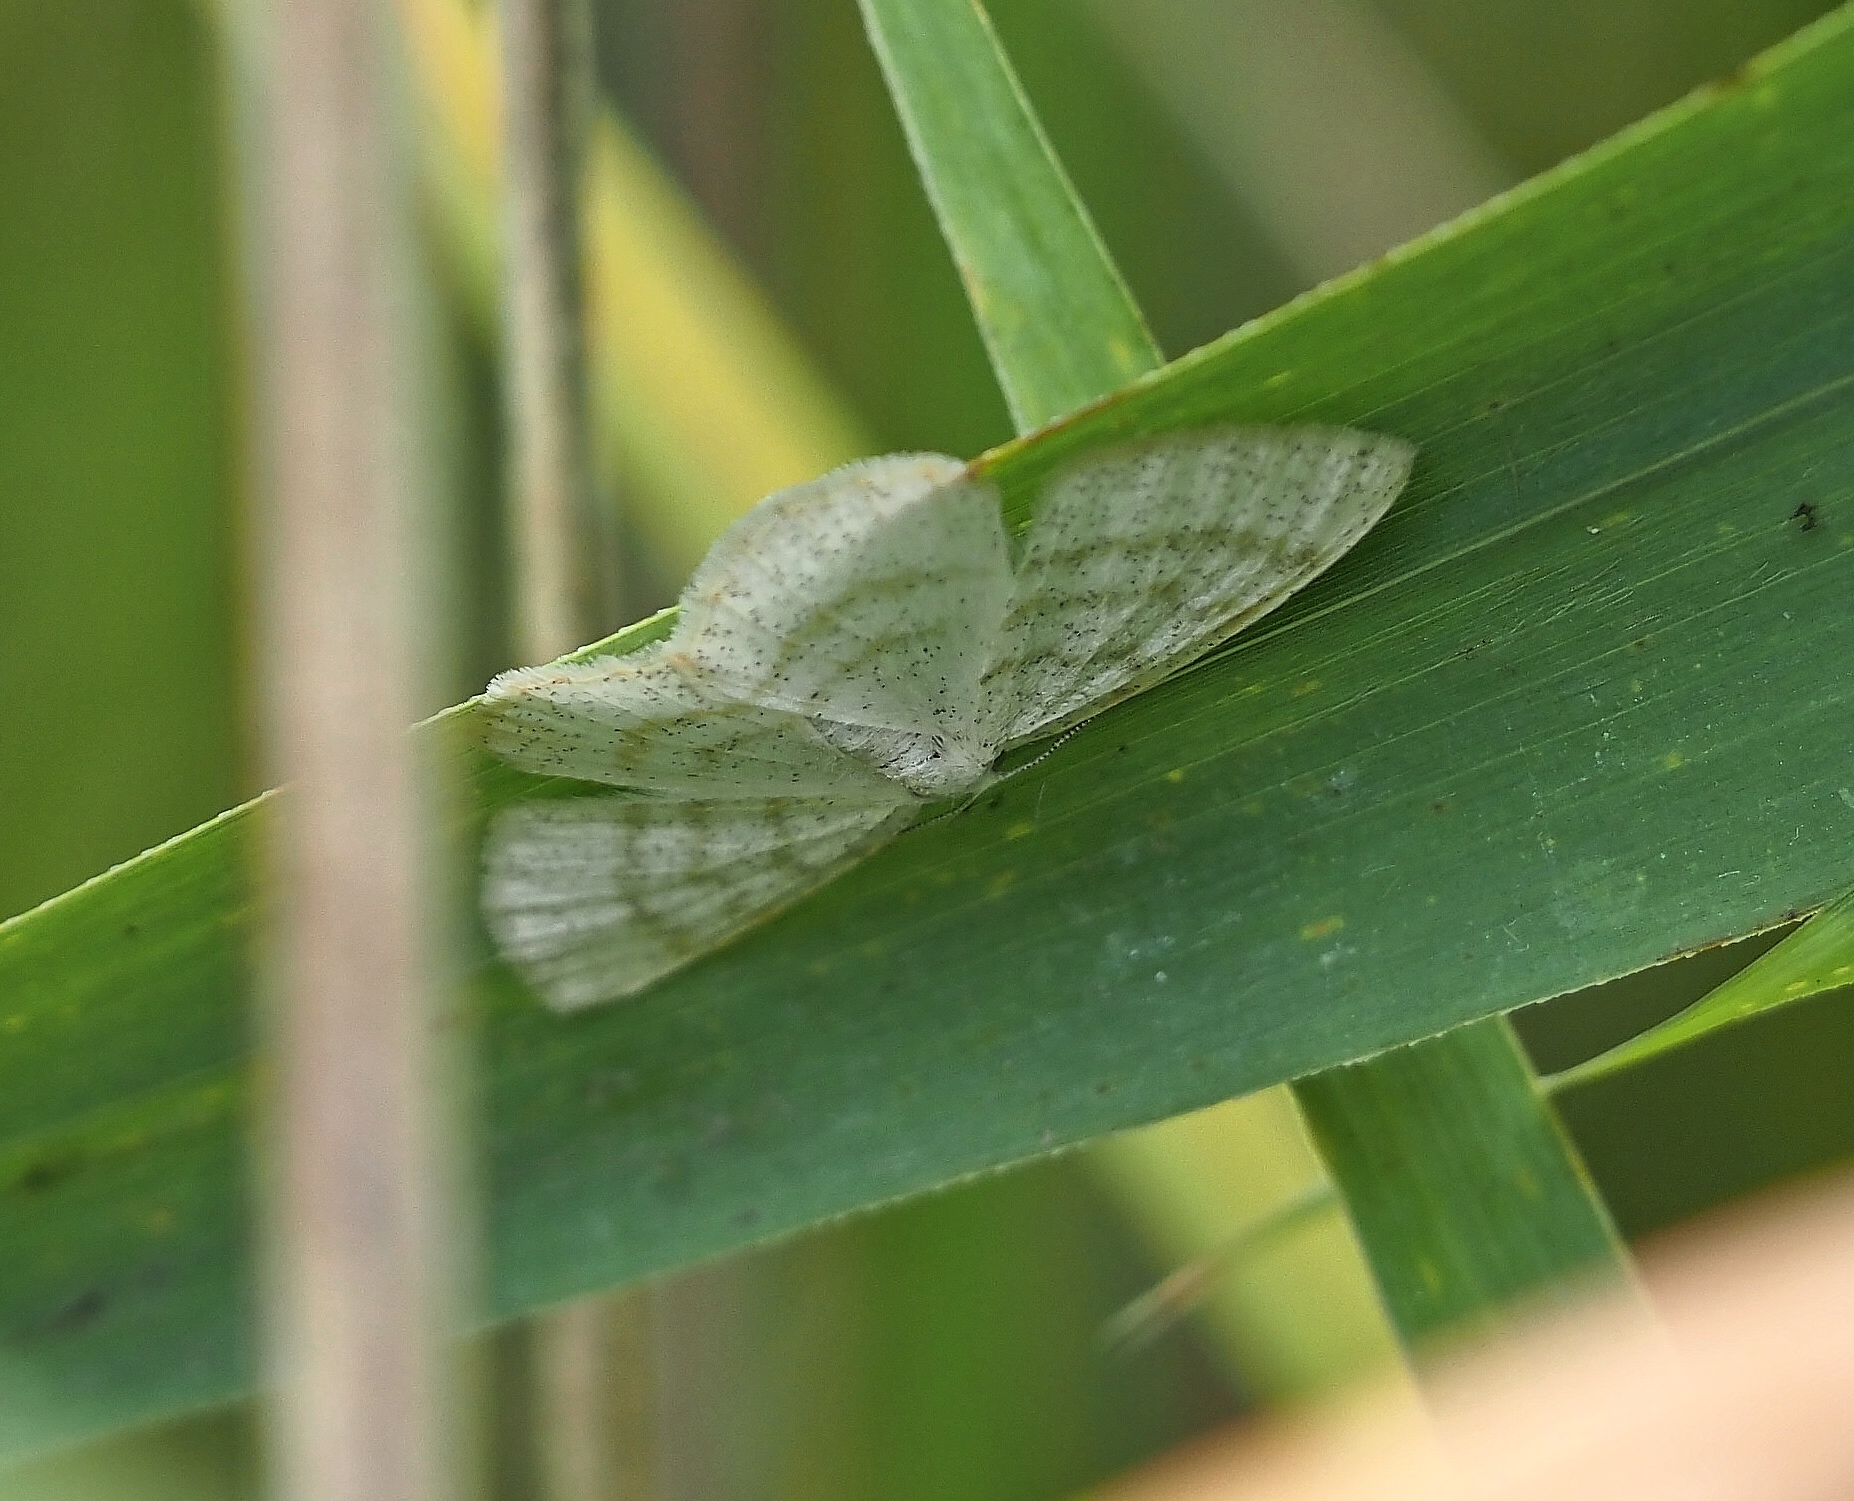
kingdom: Animalia
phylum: Arthropoda
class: Insecta
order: Lepidoptera
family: Geometridae
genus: Cabera
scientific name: Cabera exanthemata
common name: Common wave
